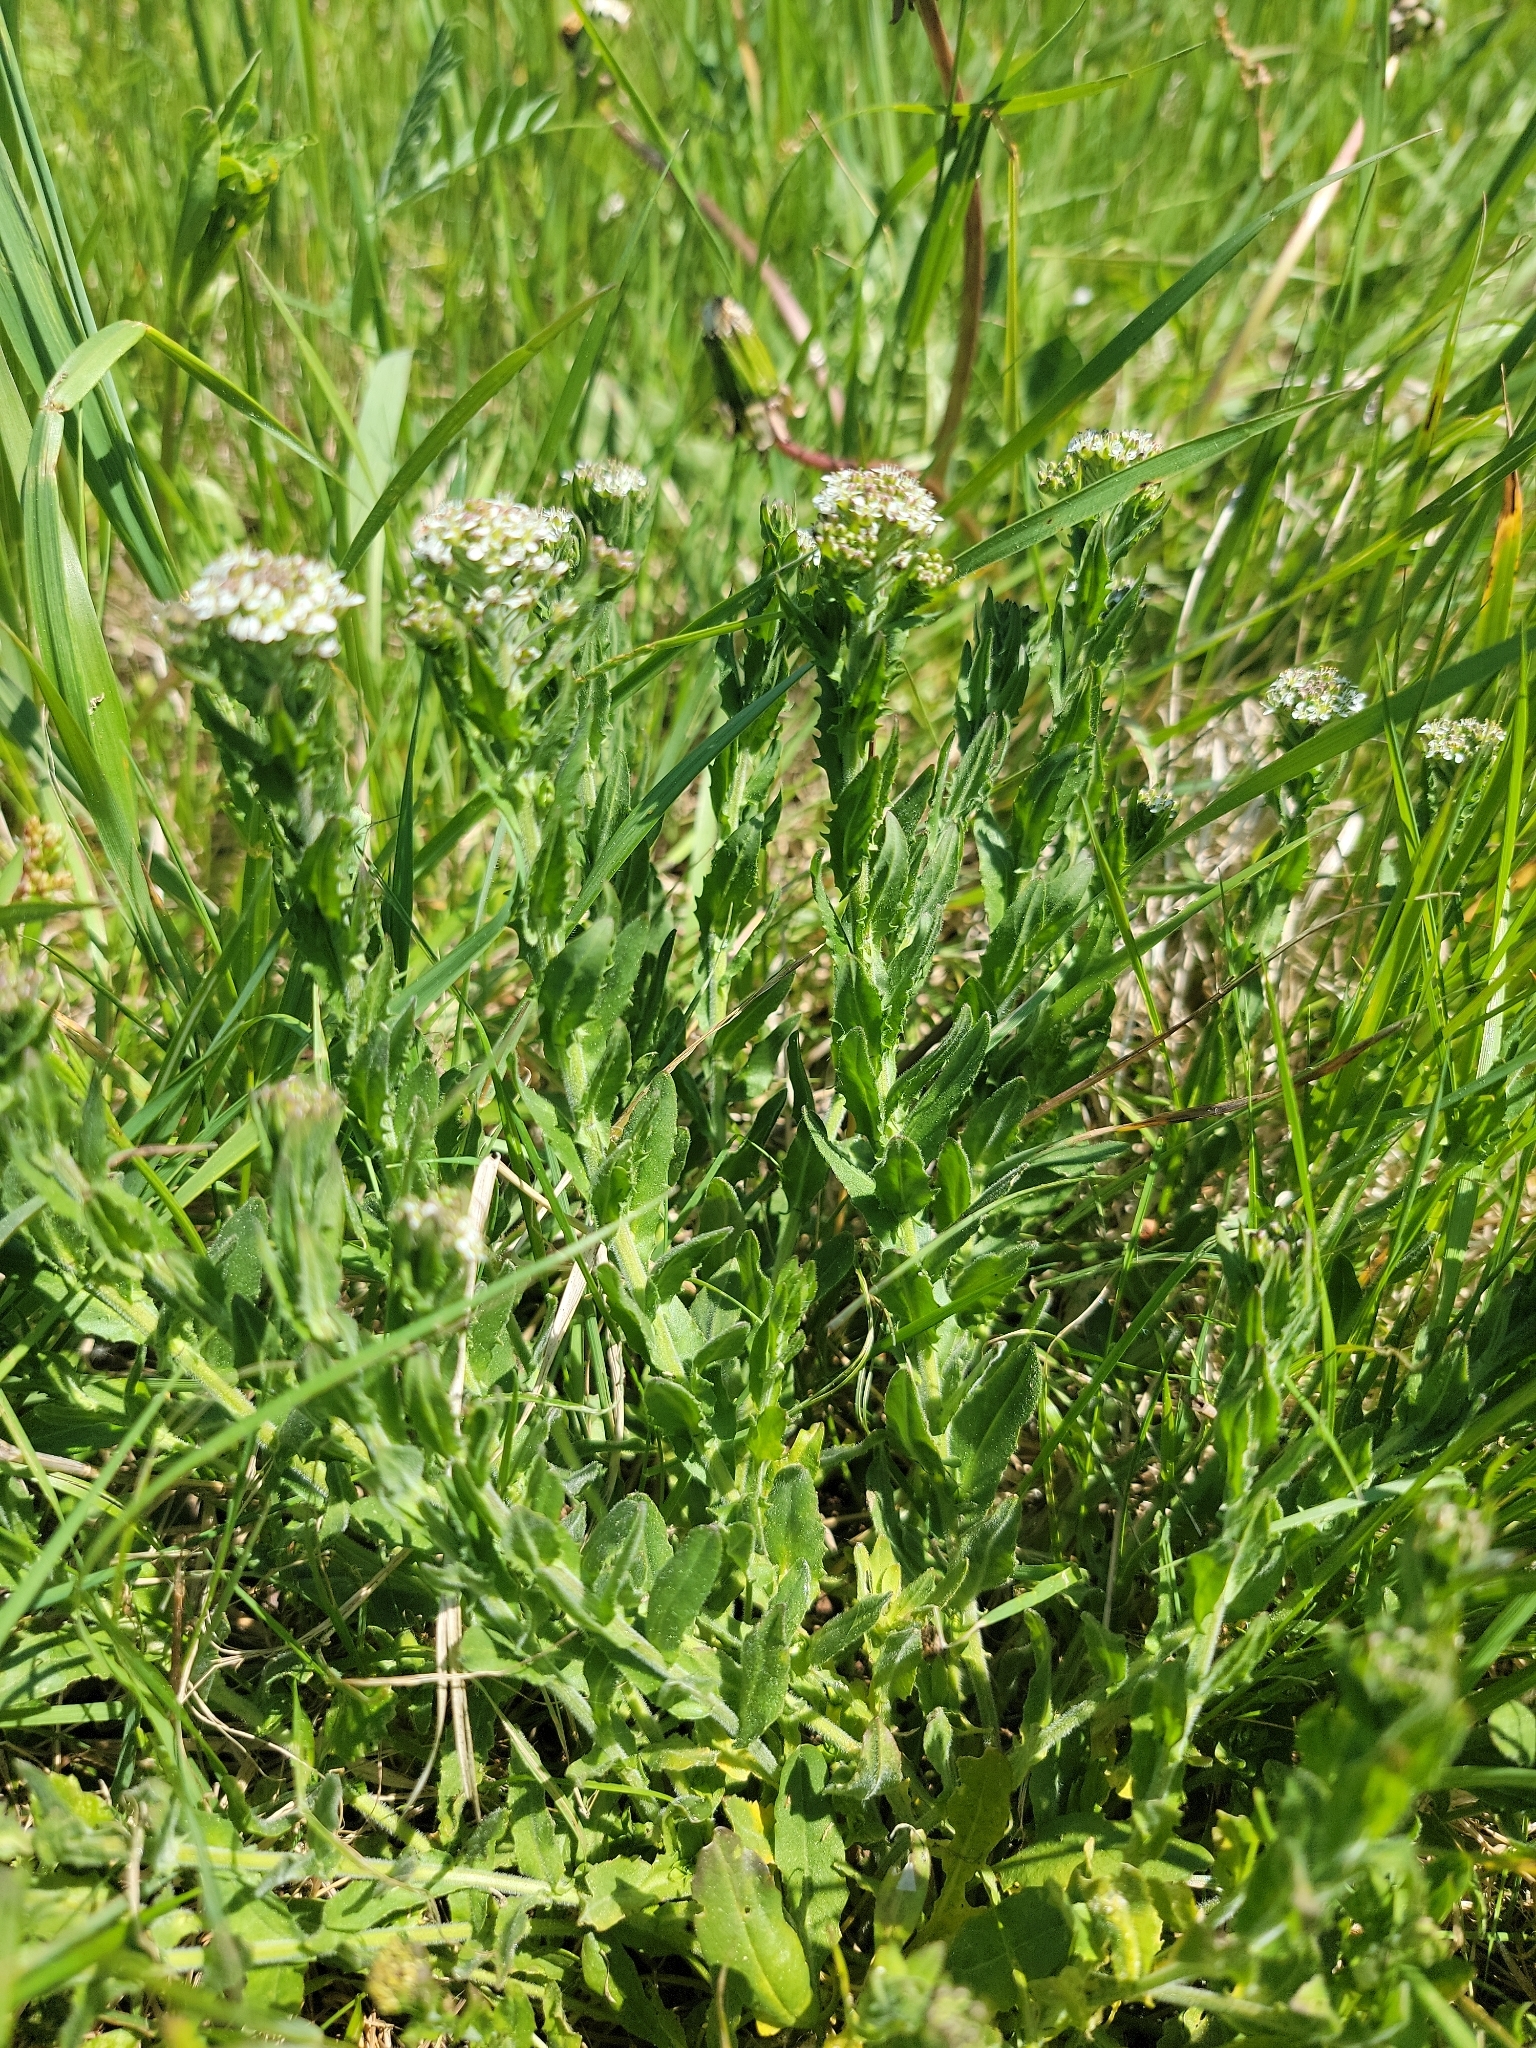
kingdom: Plantae
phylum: Tracheophyta
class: Magnoliopsida
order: Brassicales
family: Brassicaceae
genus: Lepidium
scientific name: Lepidium campestre
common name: Field pepperwort
